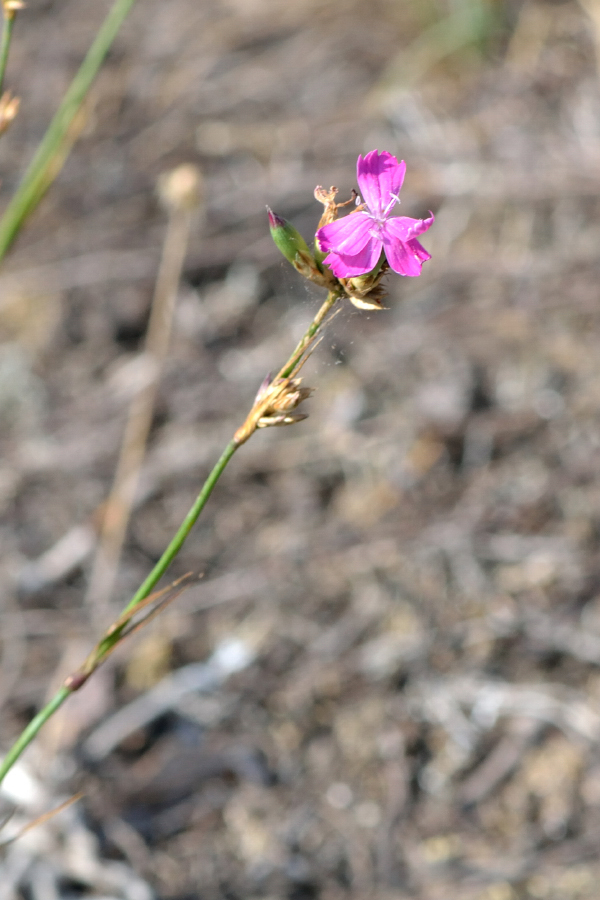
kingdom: Plantae
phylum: Tracheophyta
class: Magnoliopsida
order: Caryophyllales
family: Caryophyllaceae
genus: Dianthus
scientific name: Dianthus borbasii
